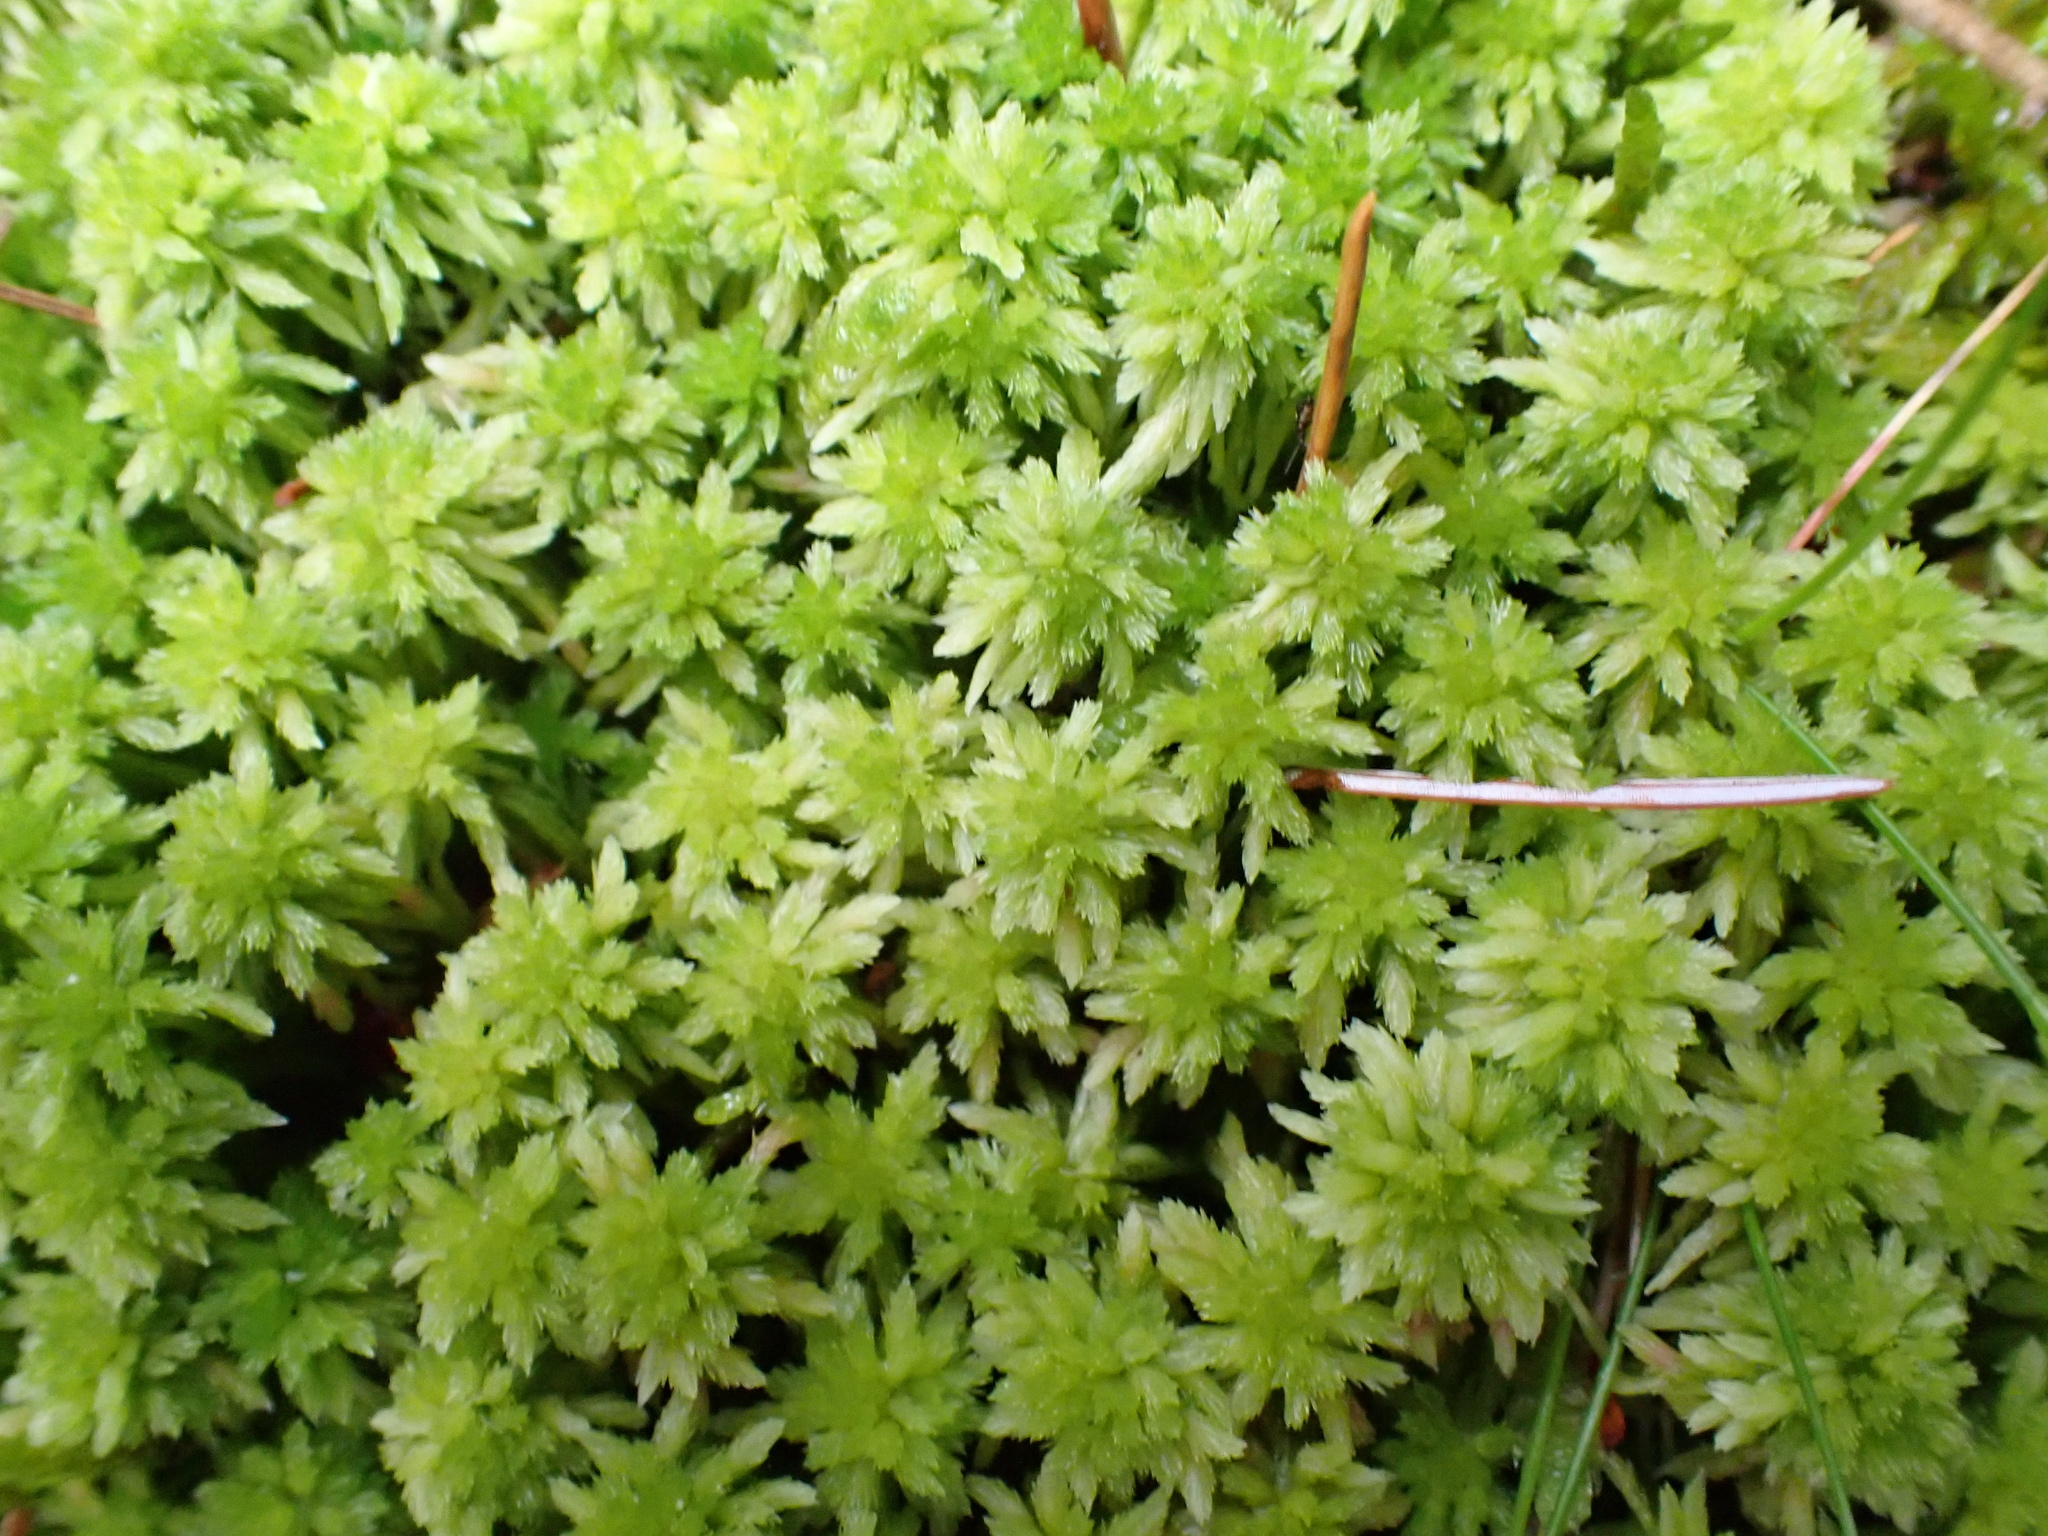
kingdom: Plantae
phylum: Bryophyta
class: Sphagnopsida
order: Sphagnales
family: Sphagnaceae
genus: Sphagnum
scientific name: Sphagnum capillifolium
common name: Small red peat moss
